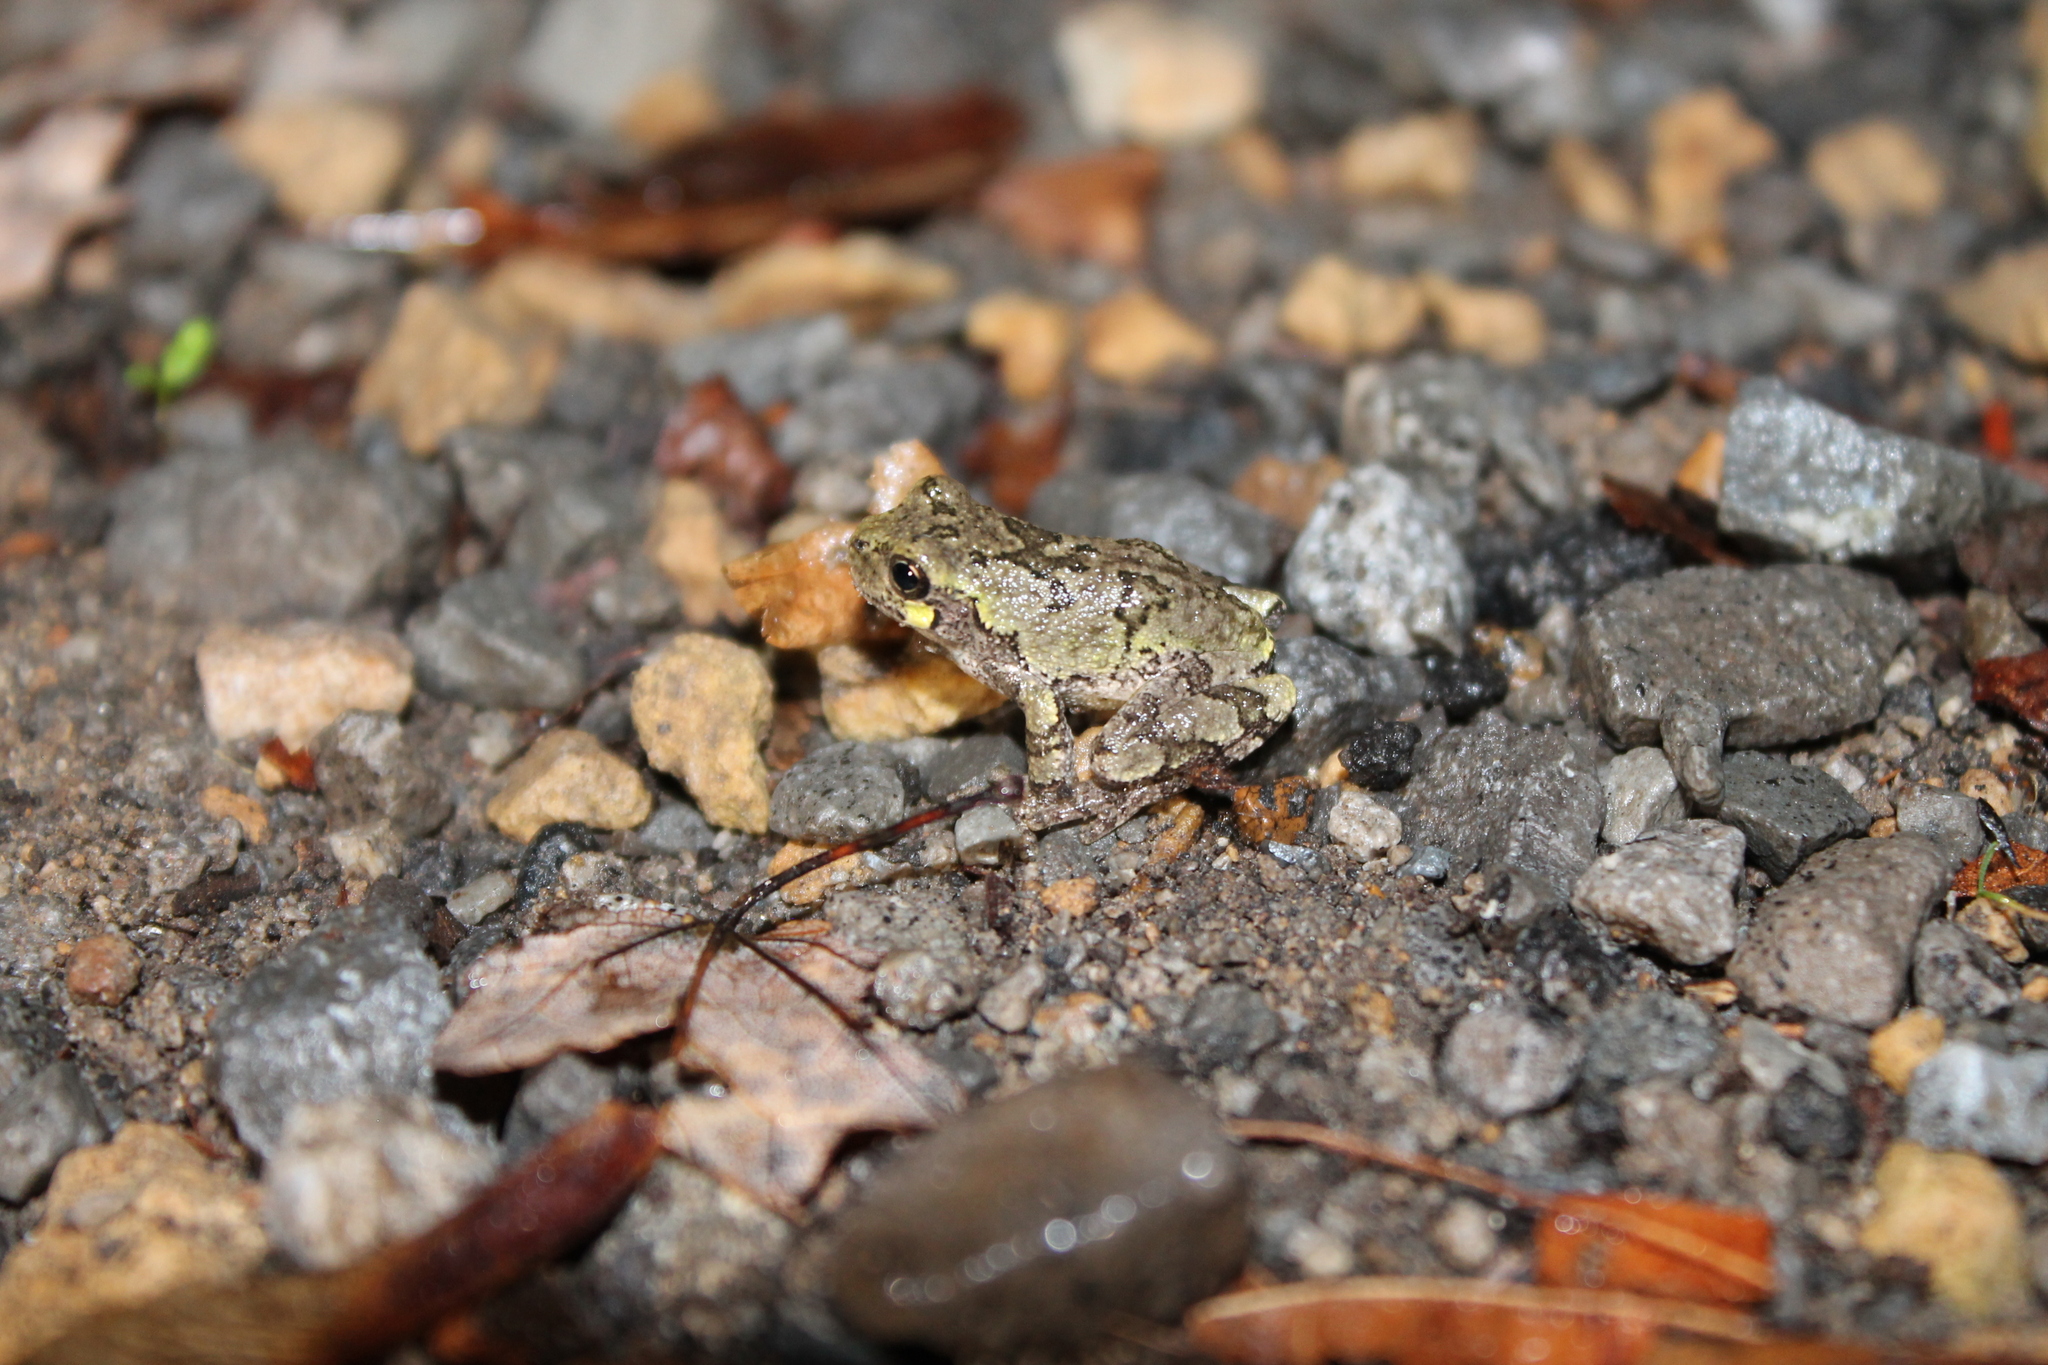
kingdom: Animalia
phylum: Chordata
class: Amphibia
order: Anura
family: Hylidae
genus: Dryophytes
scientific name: Dryophytes chrysoscelis
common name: Cope's gray treefrog
